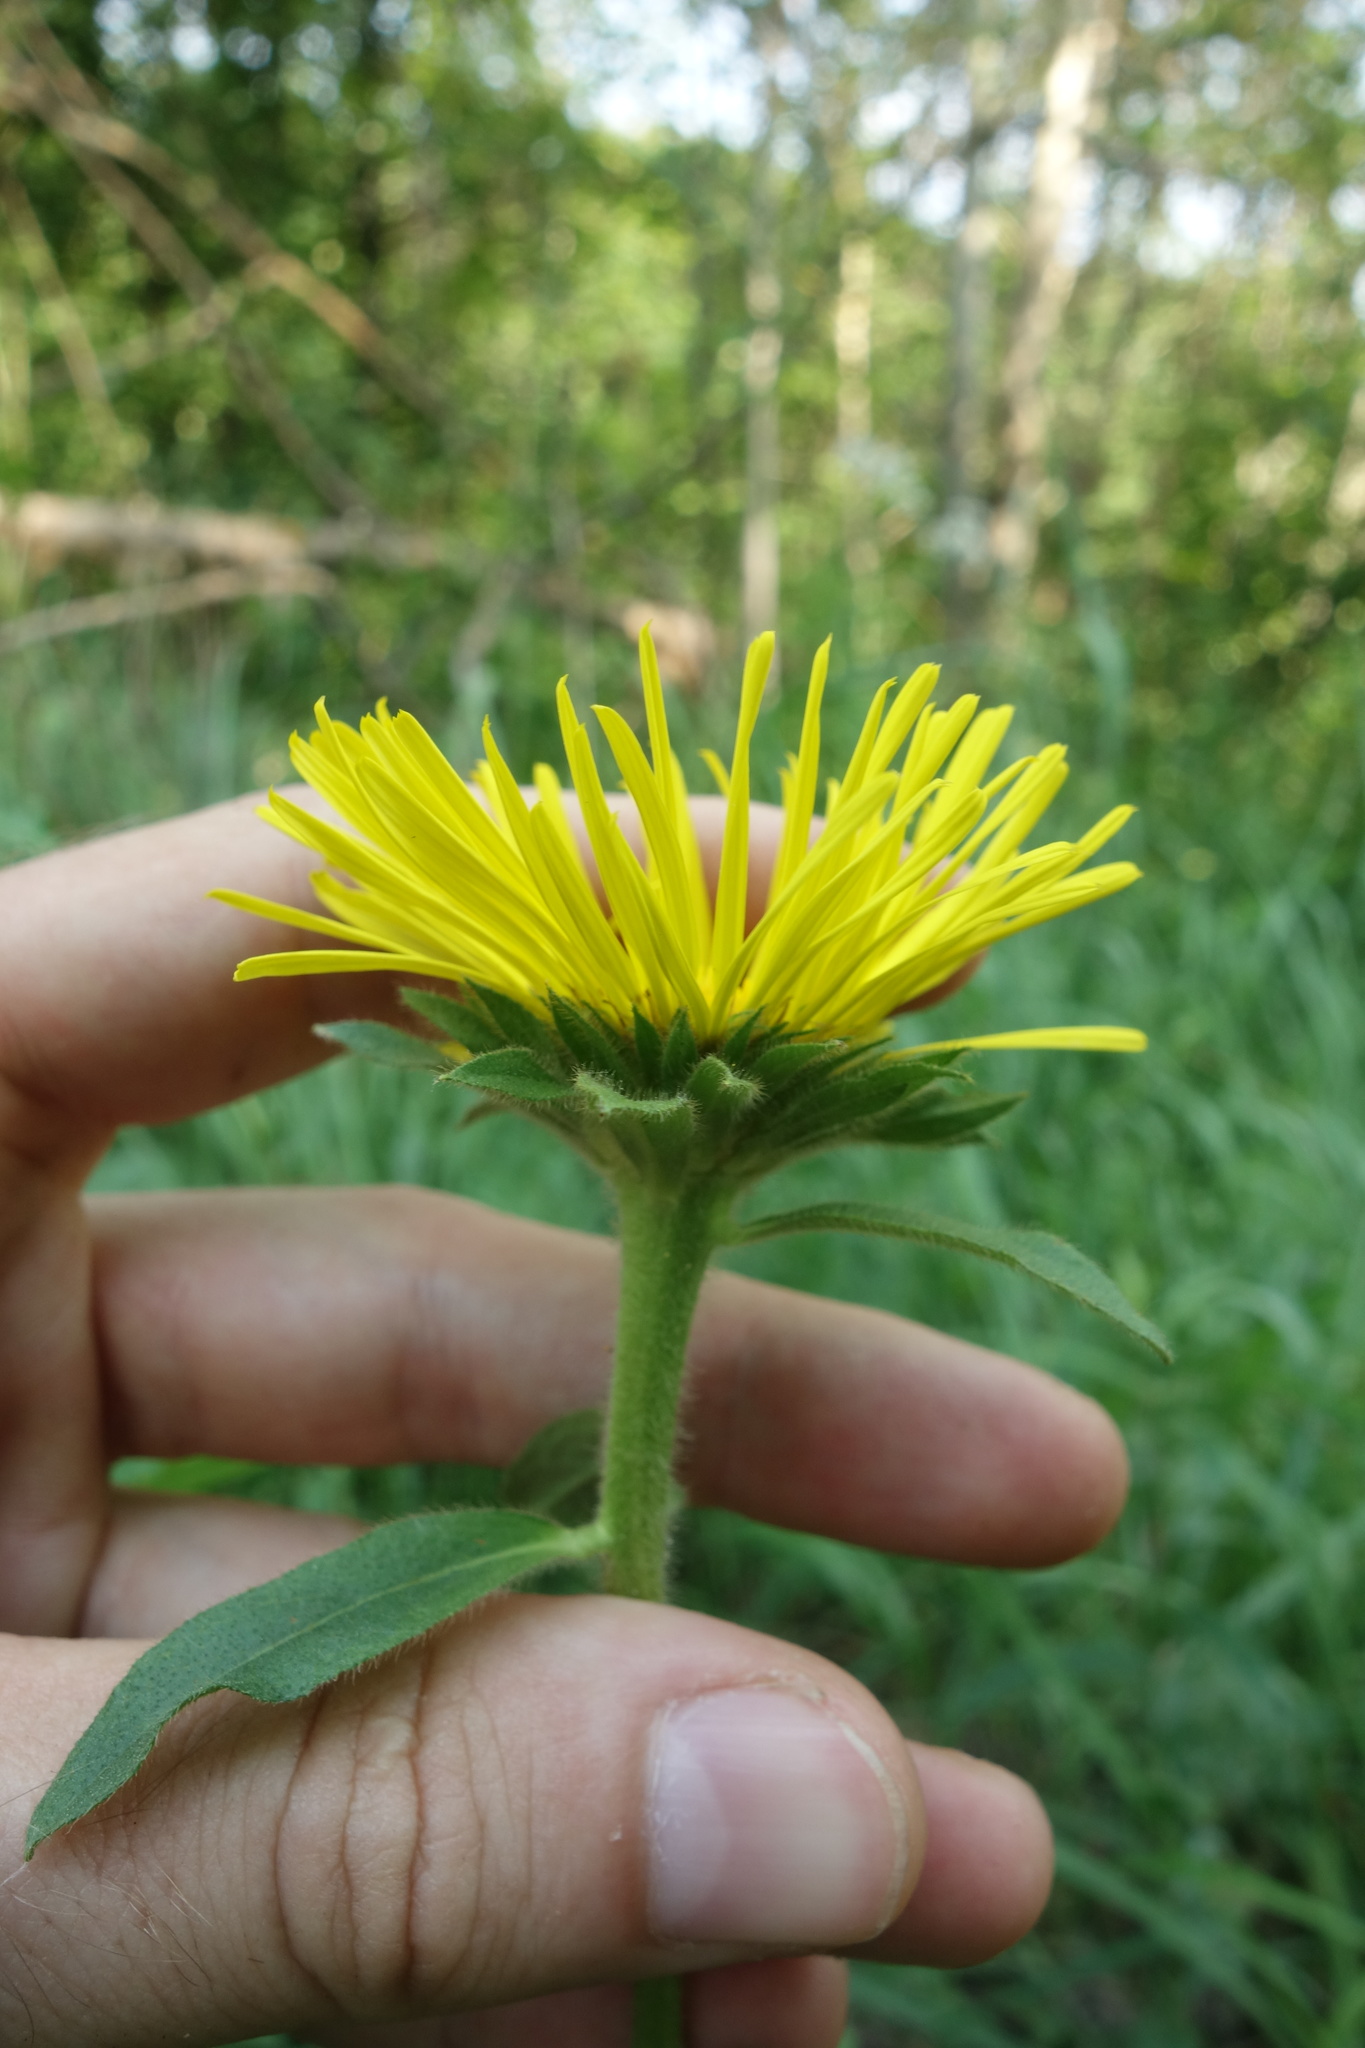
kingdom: Plantae
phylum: Tracheophyta
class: Magnoliopsida
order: Asterales
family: Asteraceae
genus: Pentanema
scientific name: Pentanema hirtum
